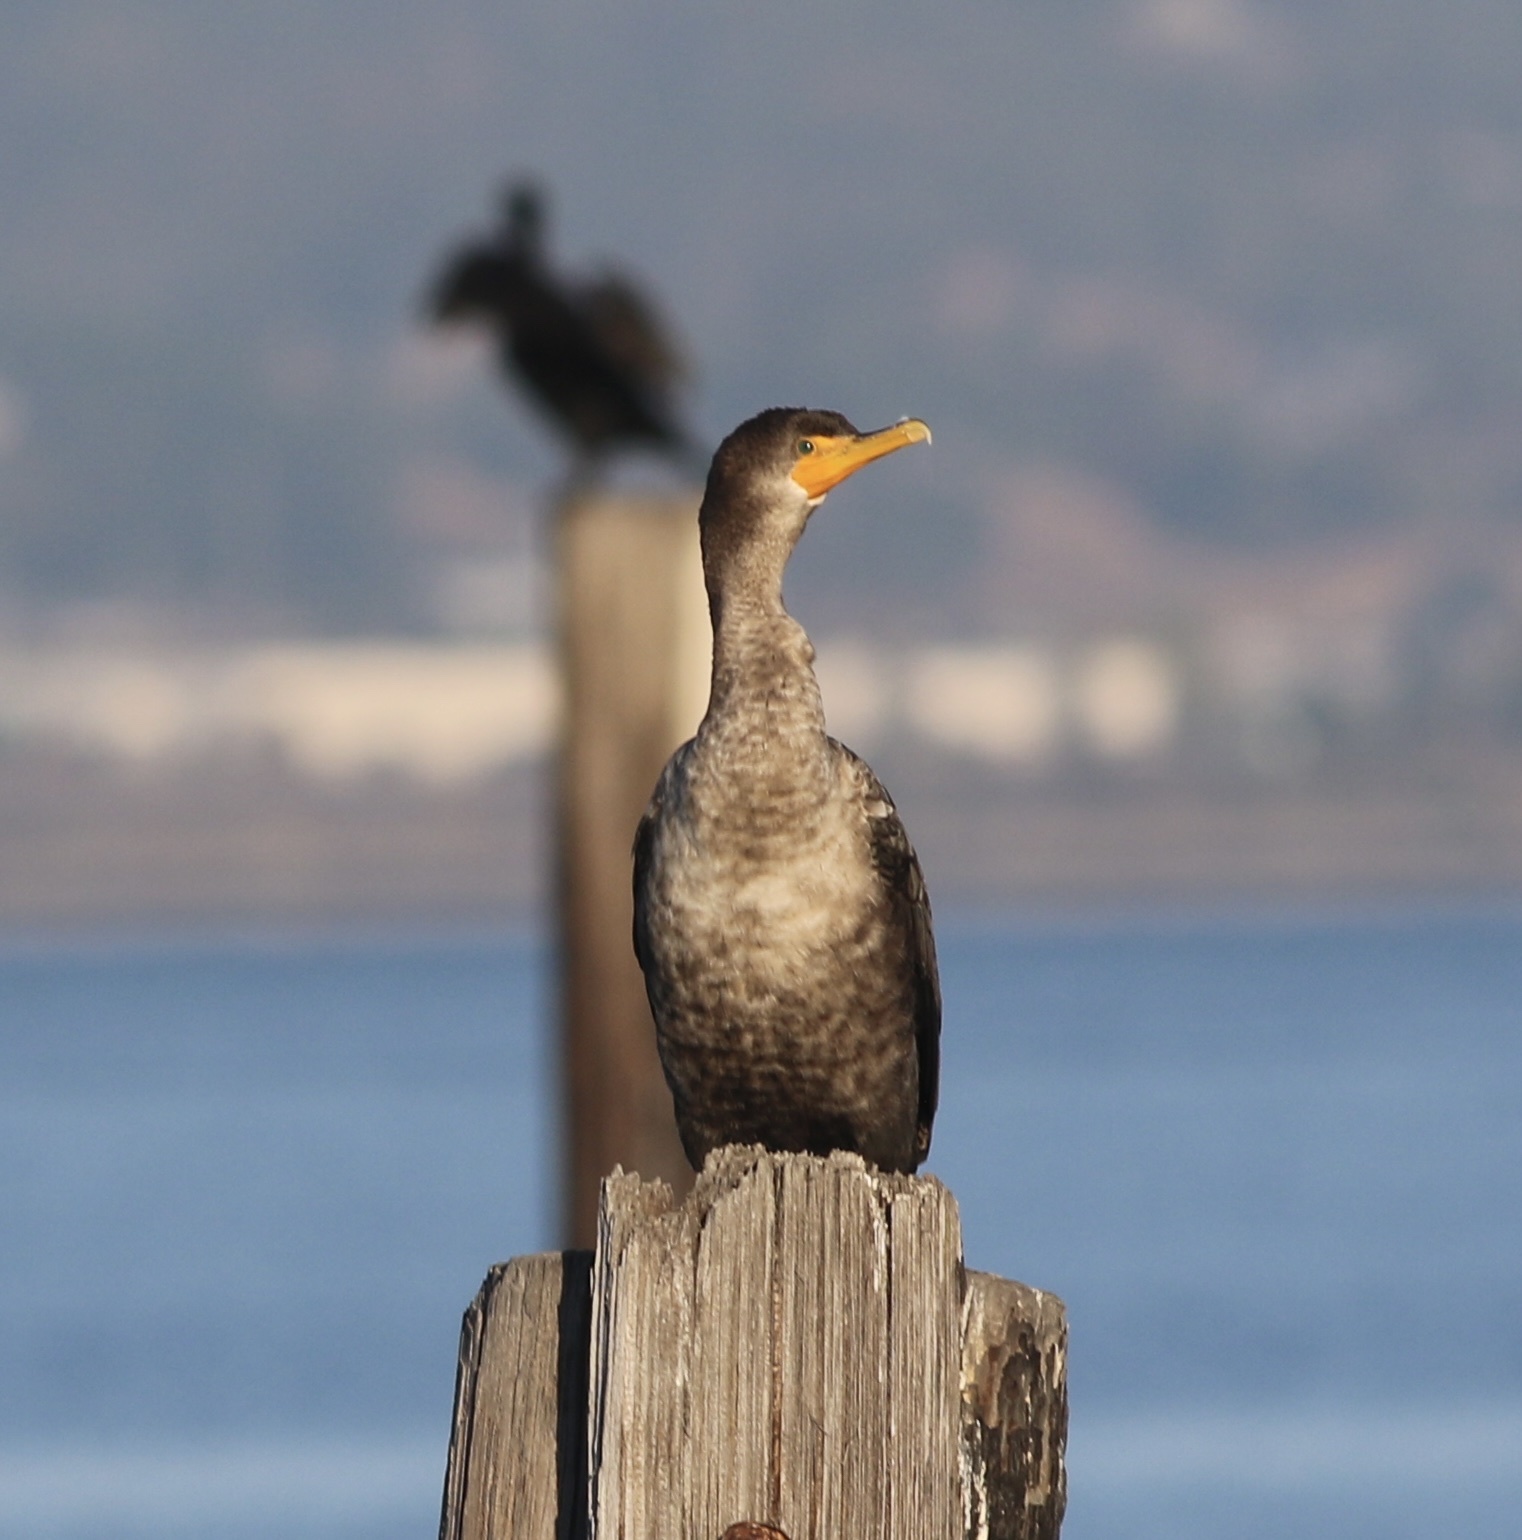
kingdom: Animalia
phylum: Chordata
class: Aves
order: Suliformes
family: Phalacrocoracidae
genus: Phalacrocorax
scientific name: Phalacrocorax auritus
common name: Double-crested cormorant
